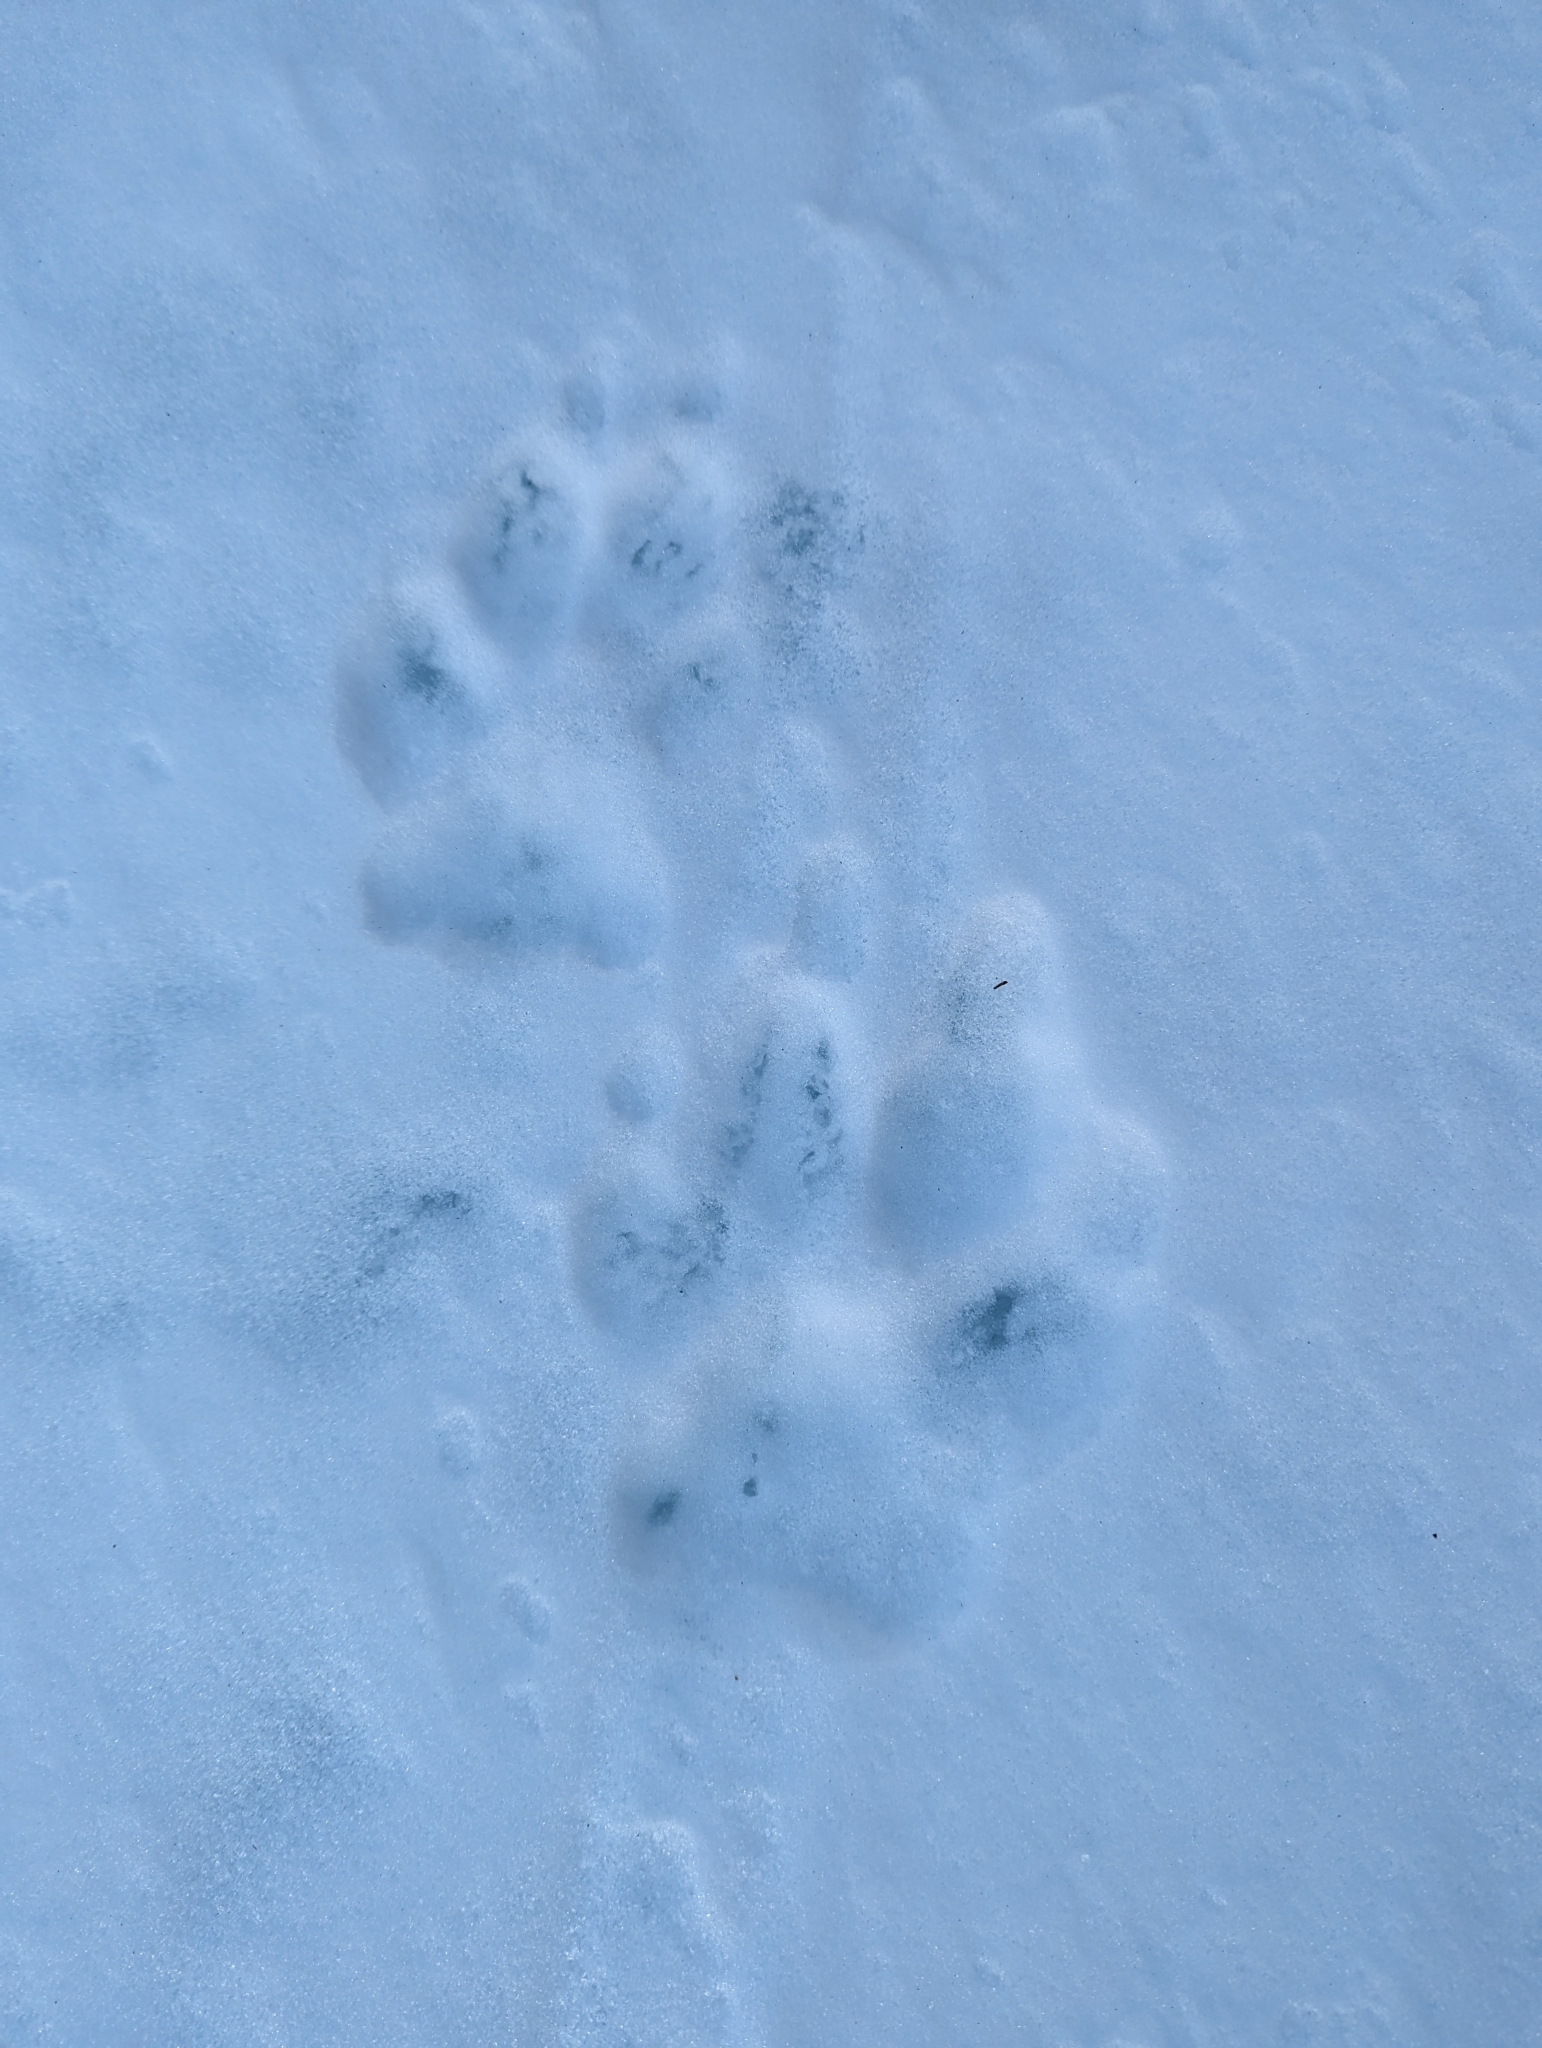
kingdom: Animalia
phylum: Chordata
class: Mammalia
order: Carnivora
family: Canidae
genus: Canis
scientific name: Canis lupus
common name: Gray wolf
